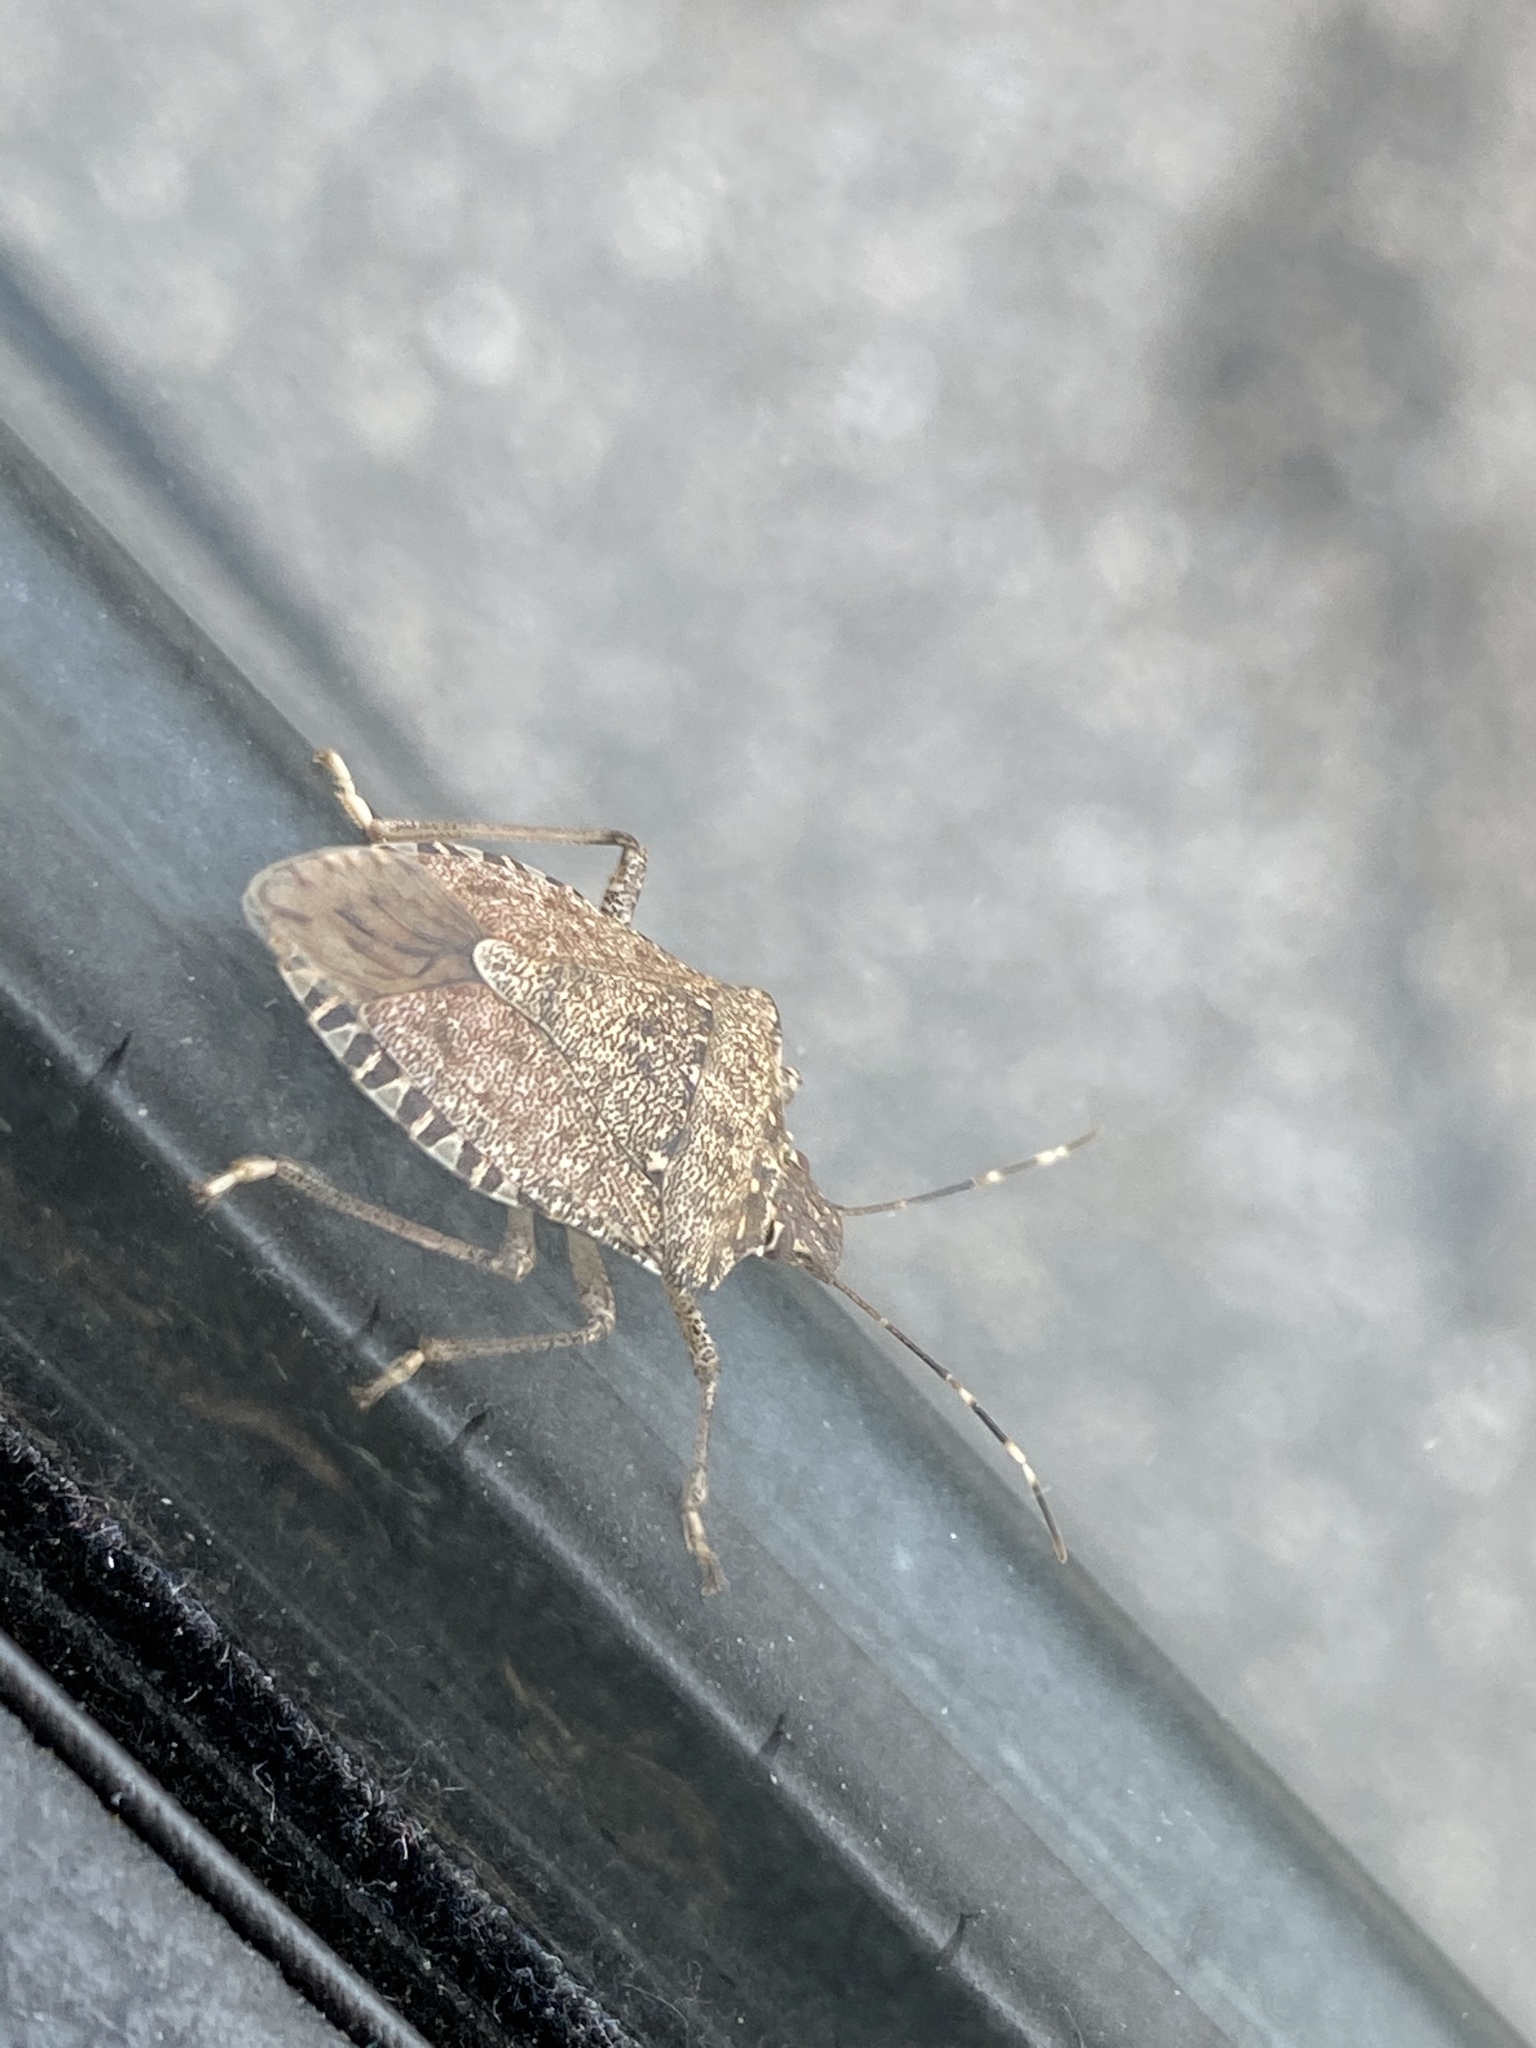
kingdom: Animalia
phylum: Arthropoda
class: Insecta
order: Hemiptera
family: Pentatomidae
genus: Halyomorpha
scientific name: Halyomorpha halys
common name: Brown marmorated stink bug
